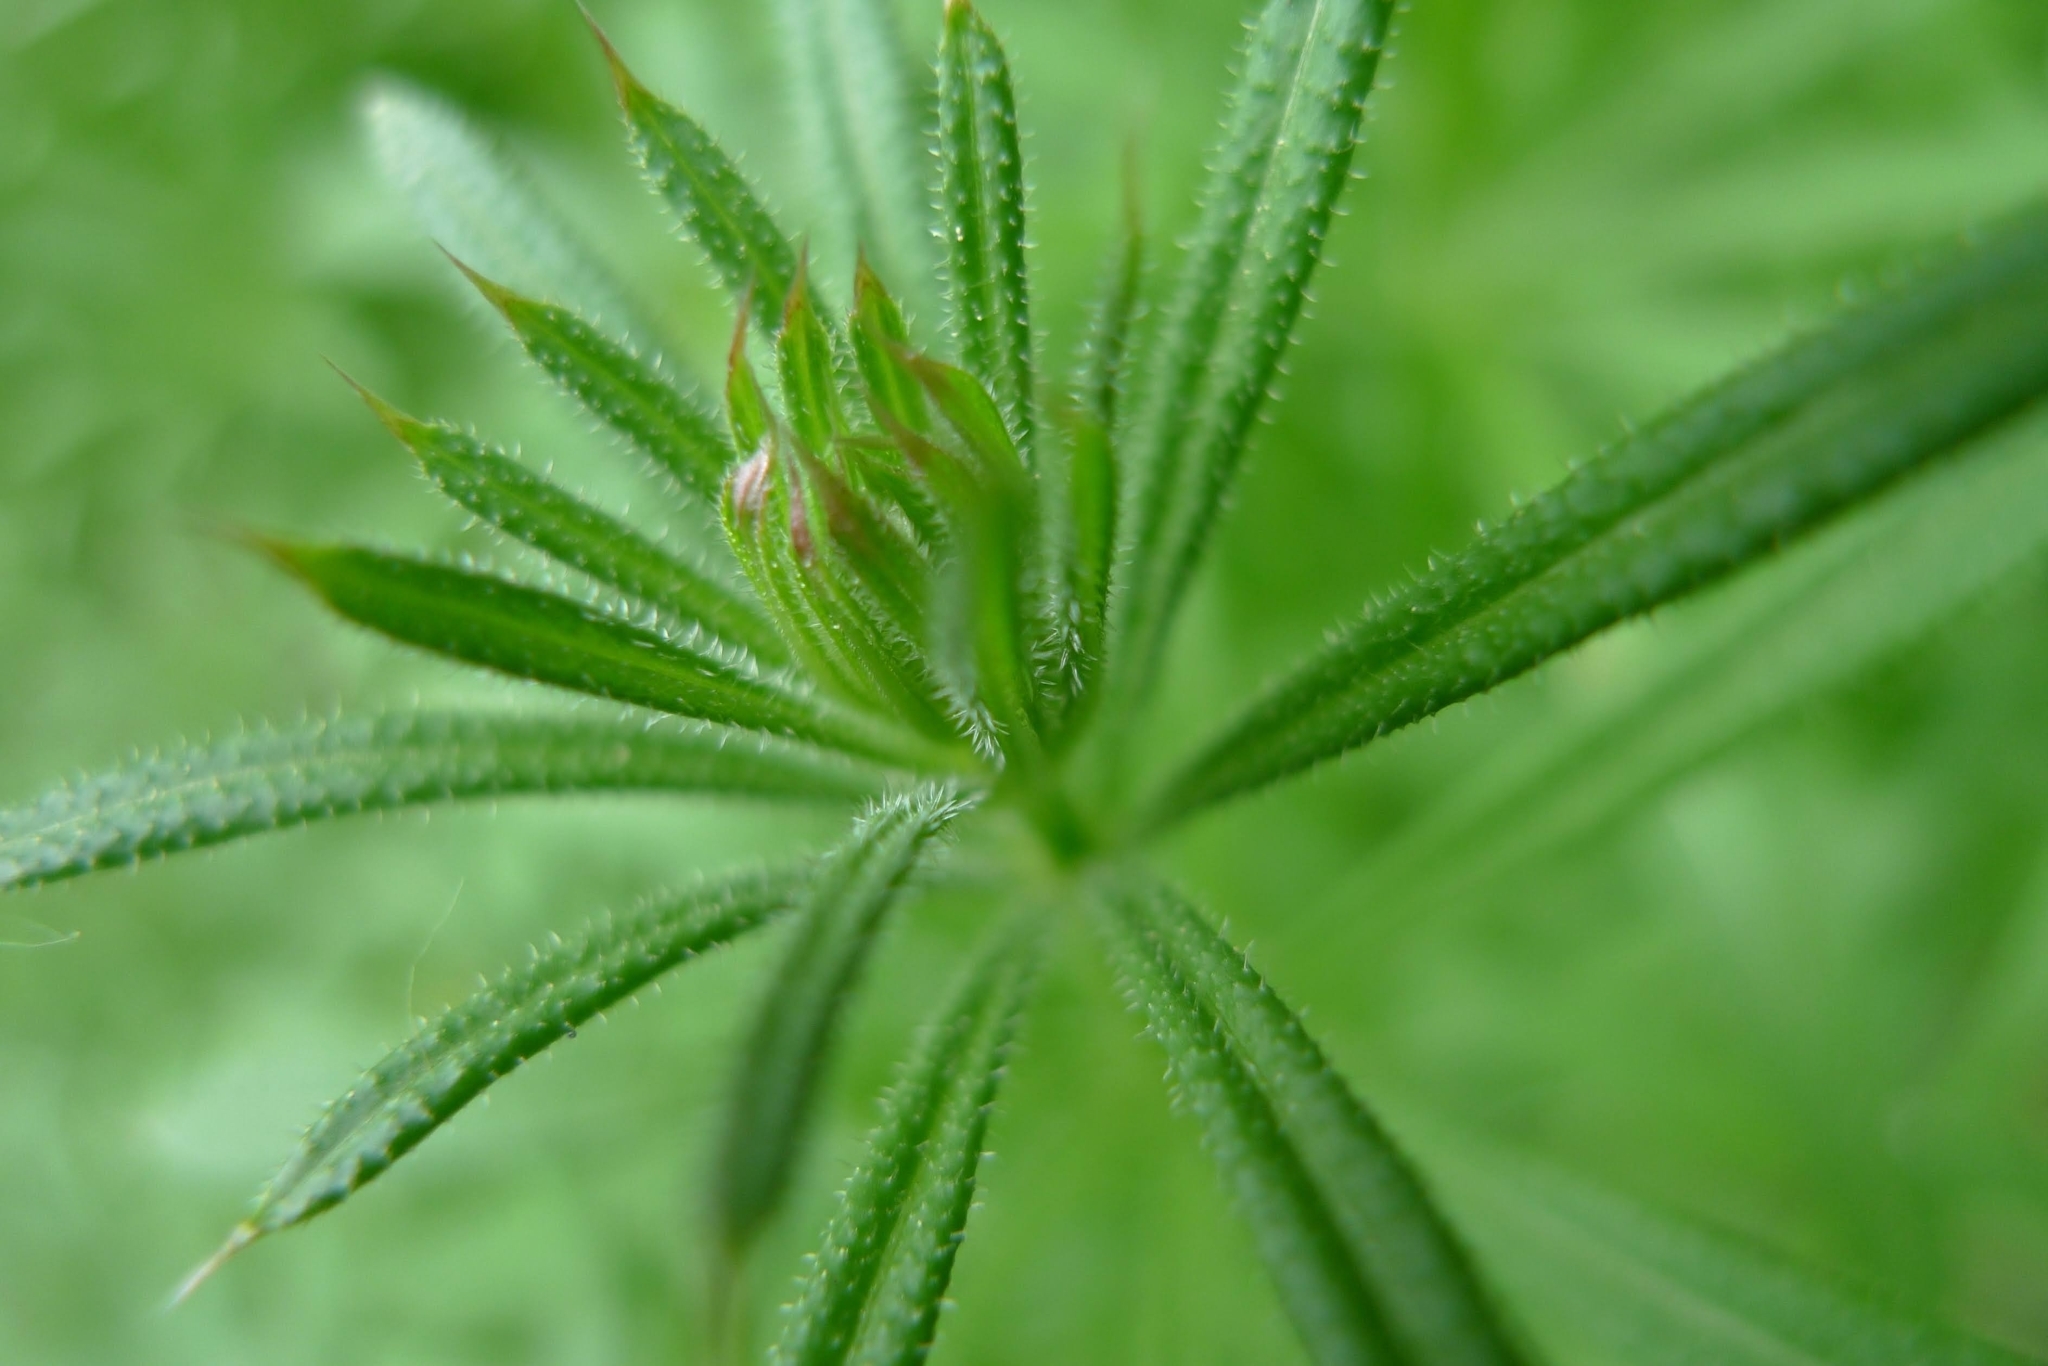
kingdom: Plantae
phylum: Tracheophyta
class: Magnoliopsida
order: Gentianales
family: Rubiaceae
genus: Galium
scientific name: Galium aparine
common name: Cleavers
